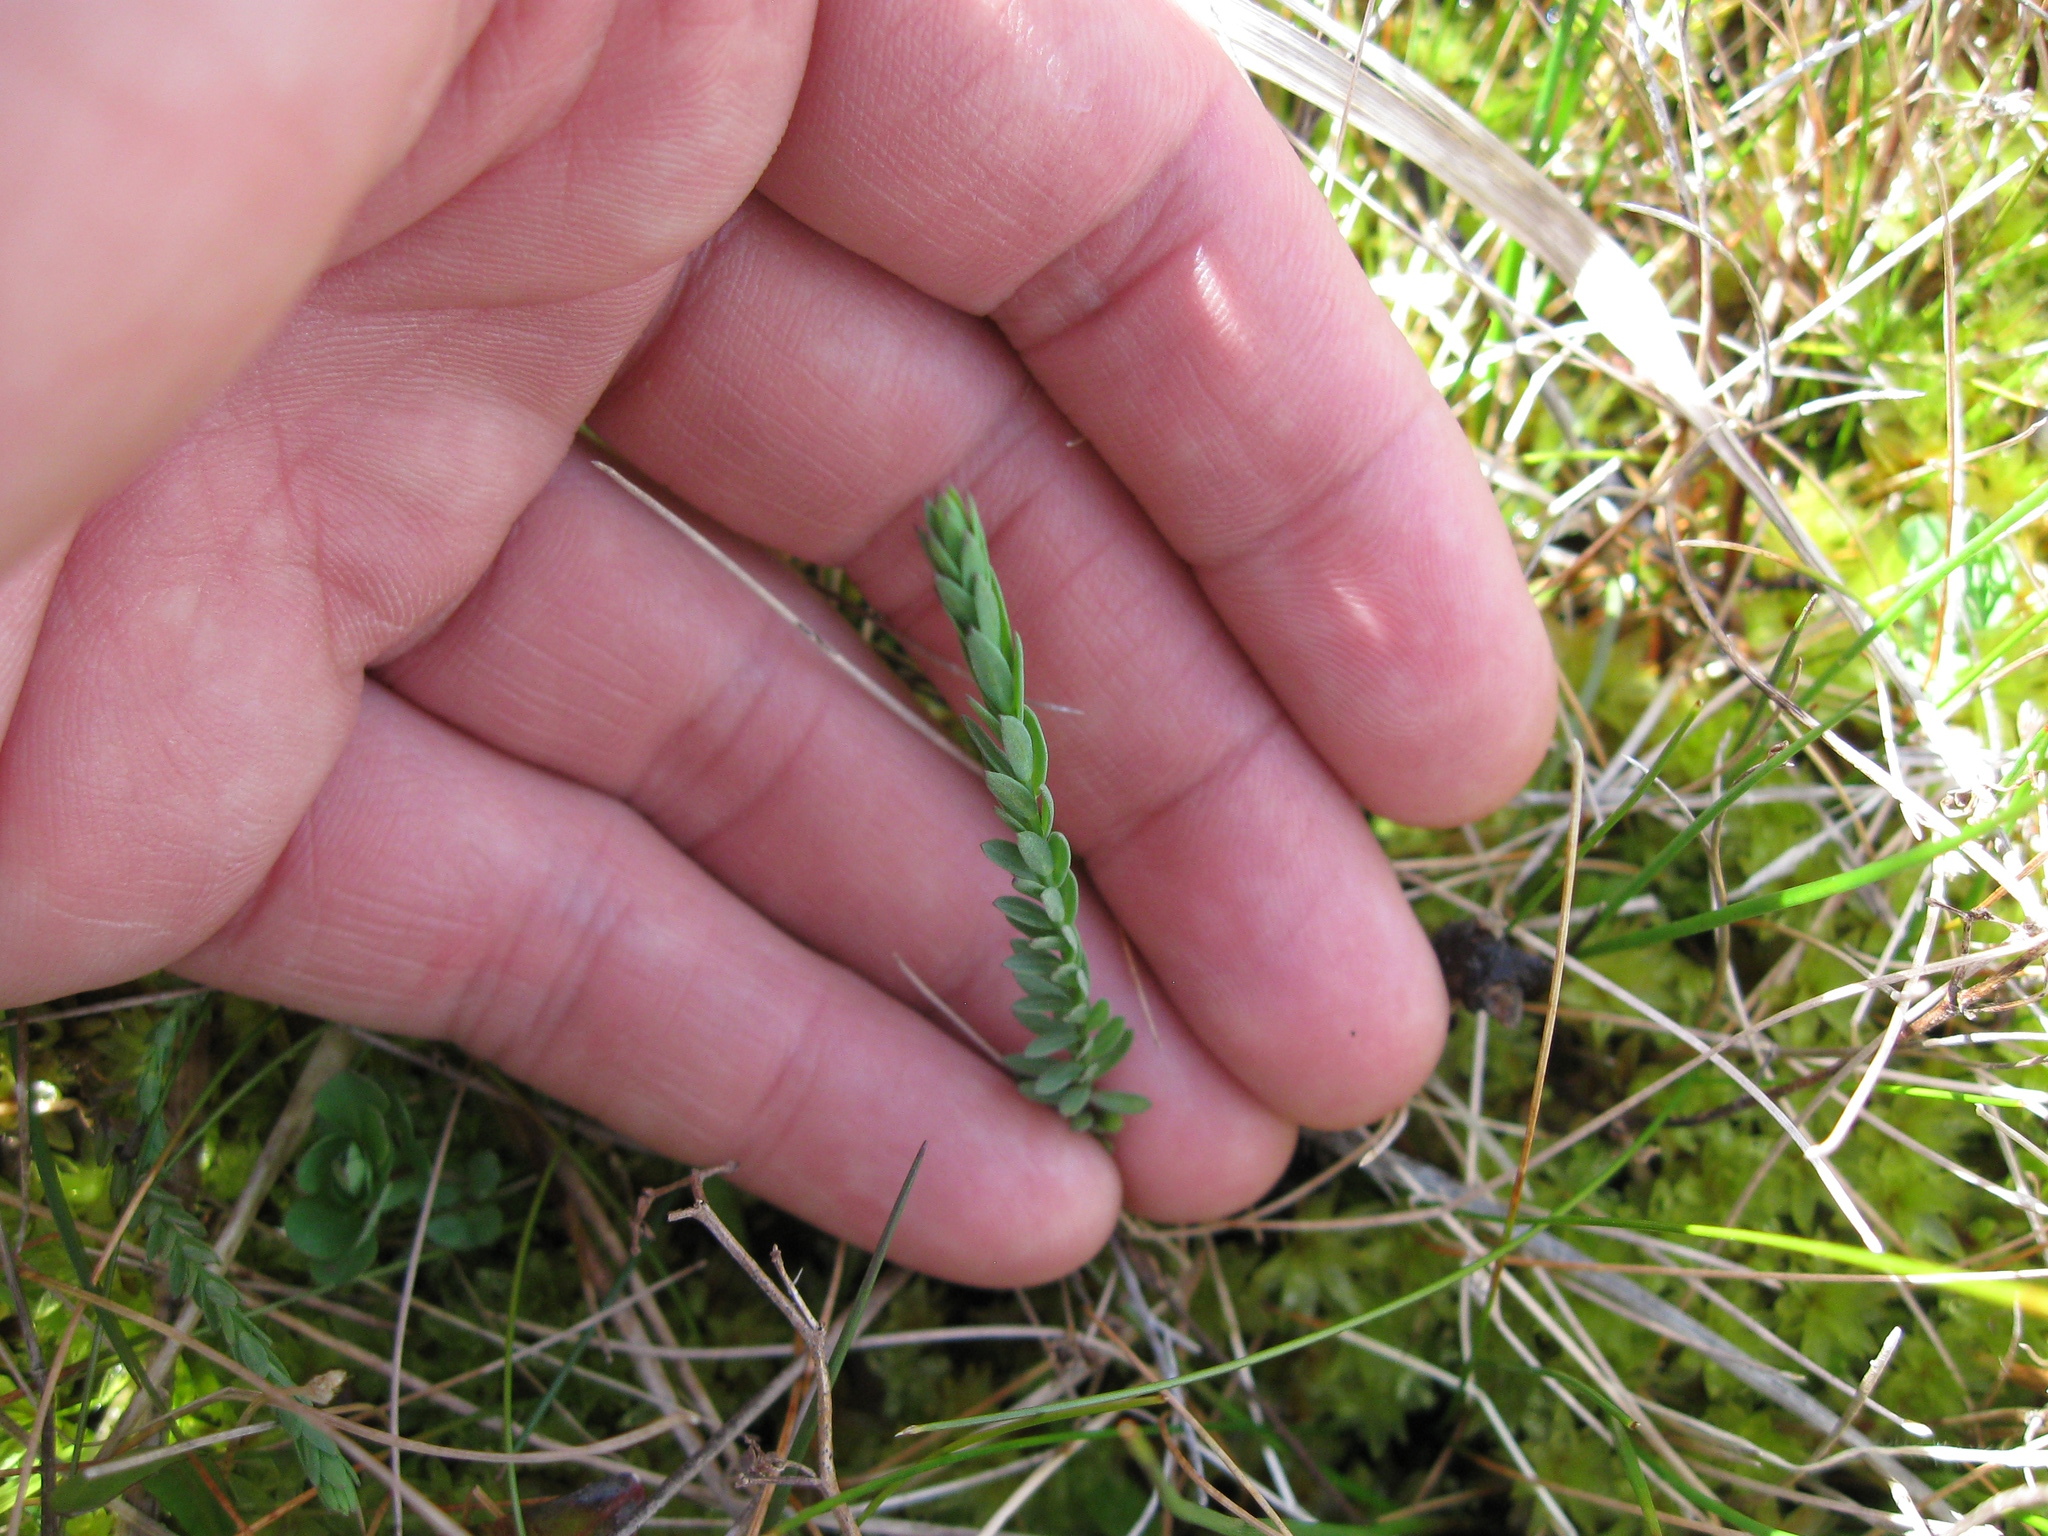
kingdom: Plantae
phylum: Tracheophyta
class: Magnoliopsida
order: Malpighiales
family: Linaceae
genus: Linum
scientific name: Linum catharticum
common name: Fairy flax
